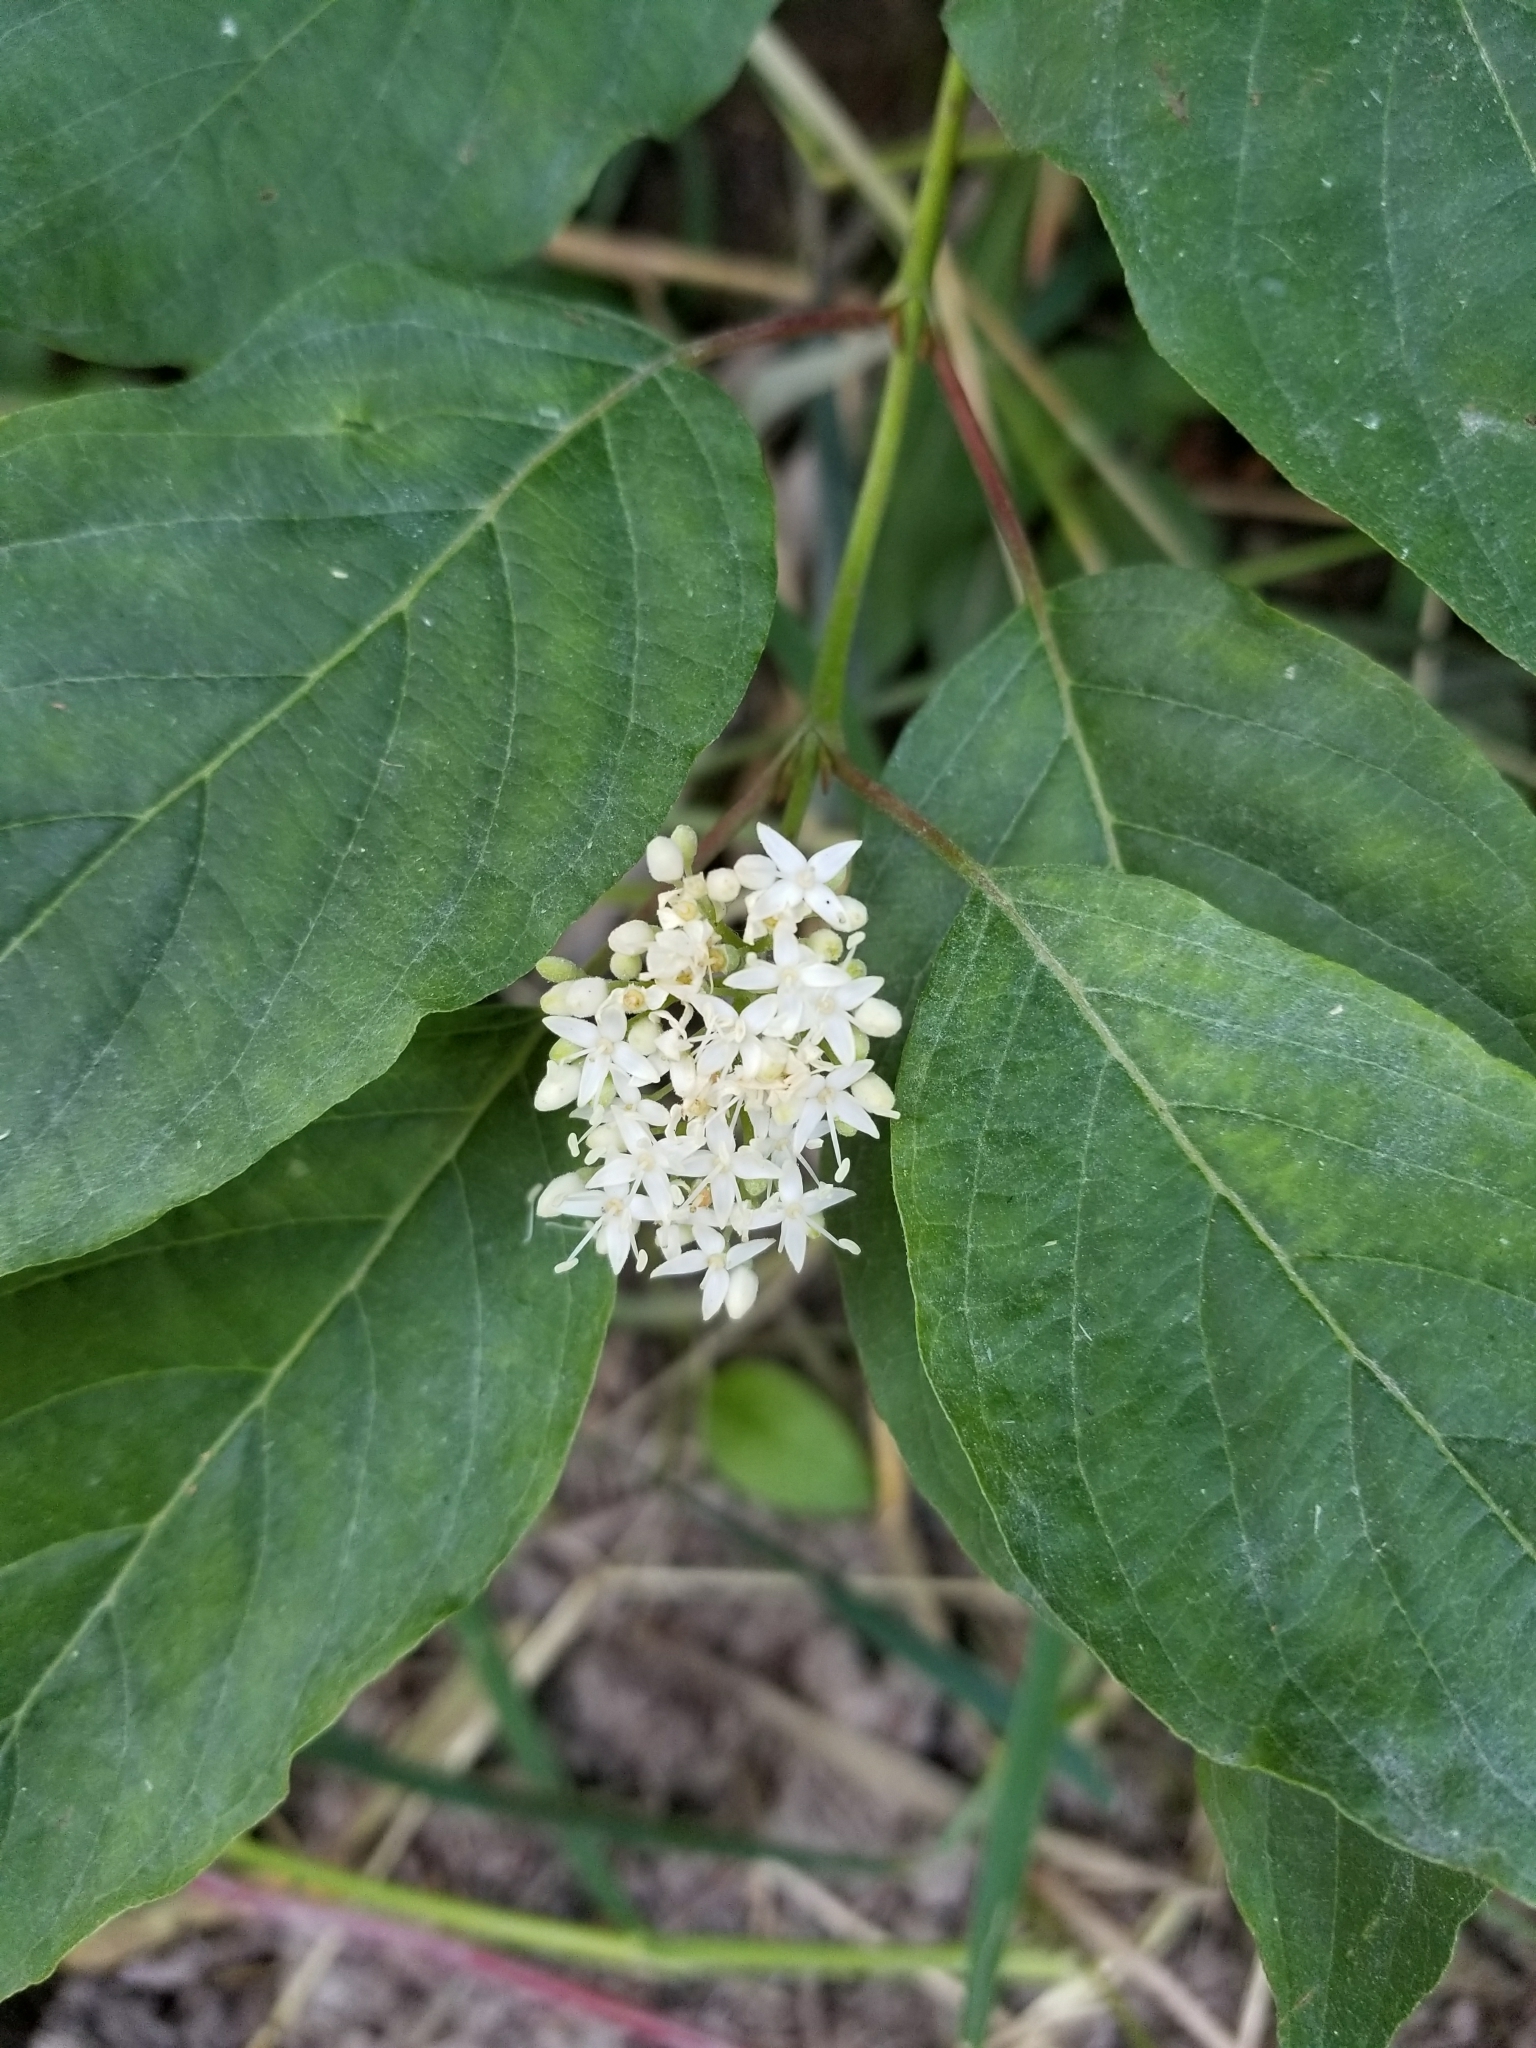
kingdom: Plantae
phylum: Tracheophyta
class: Magnoliopsida
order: Cornales
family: Cornaceae
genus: Cornus
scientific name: Cornus sericea
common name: Red-osier dogwood
